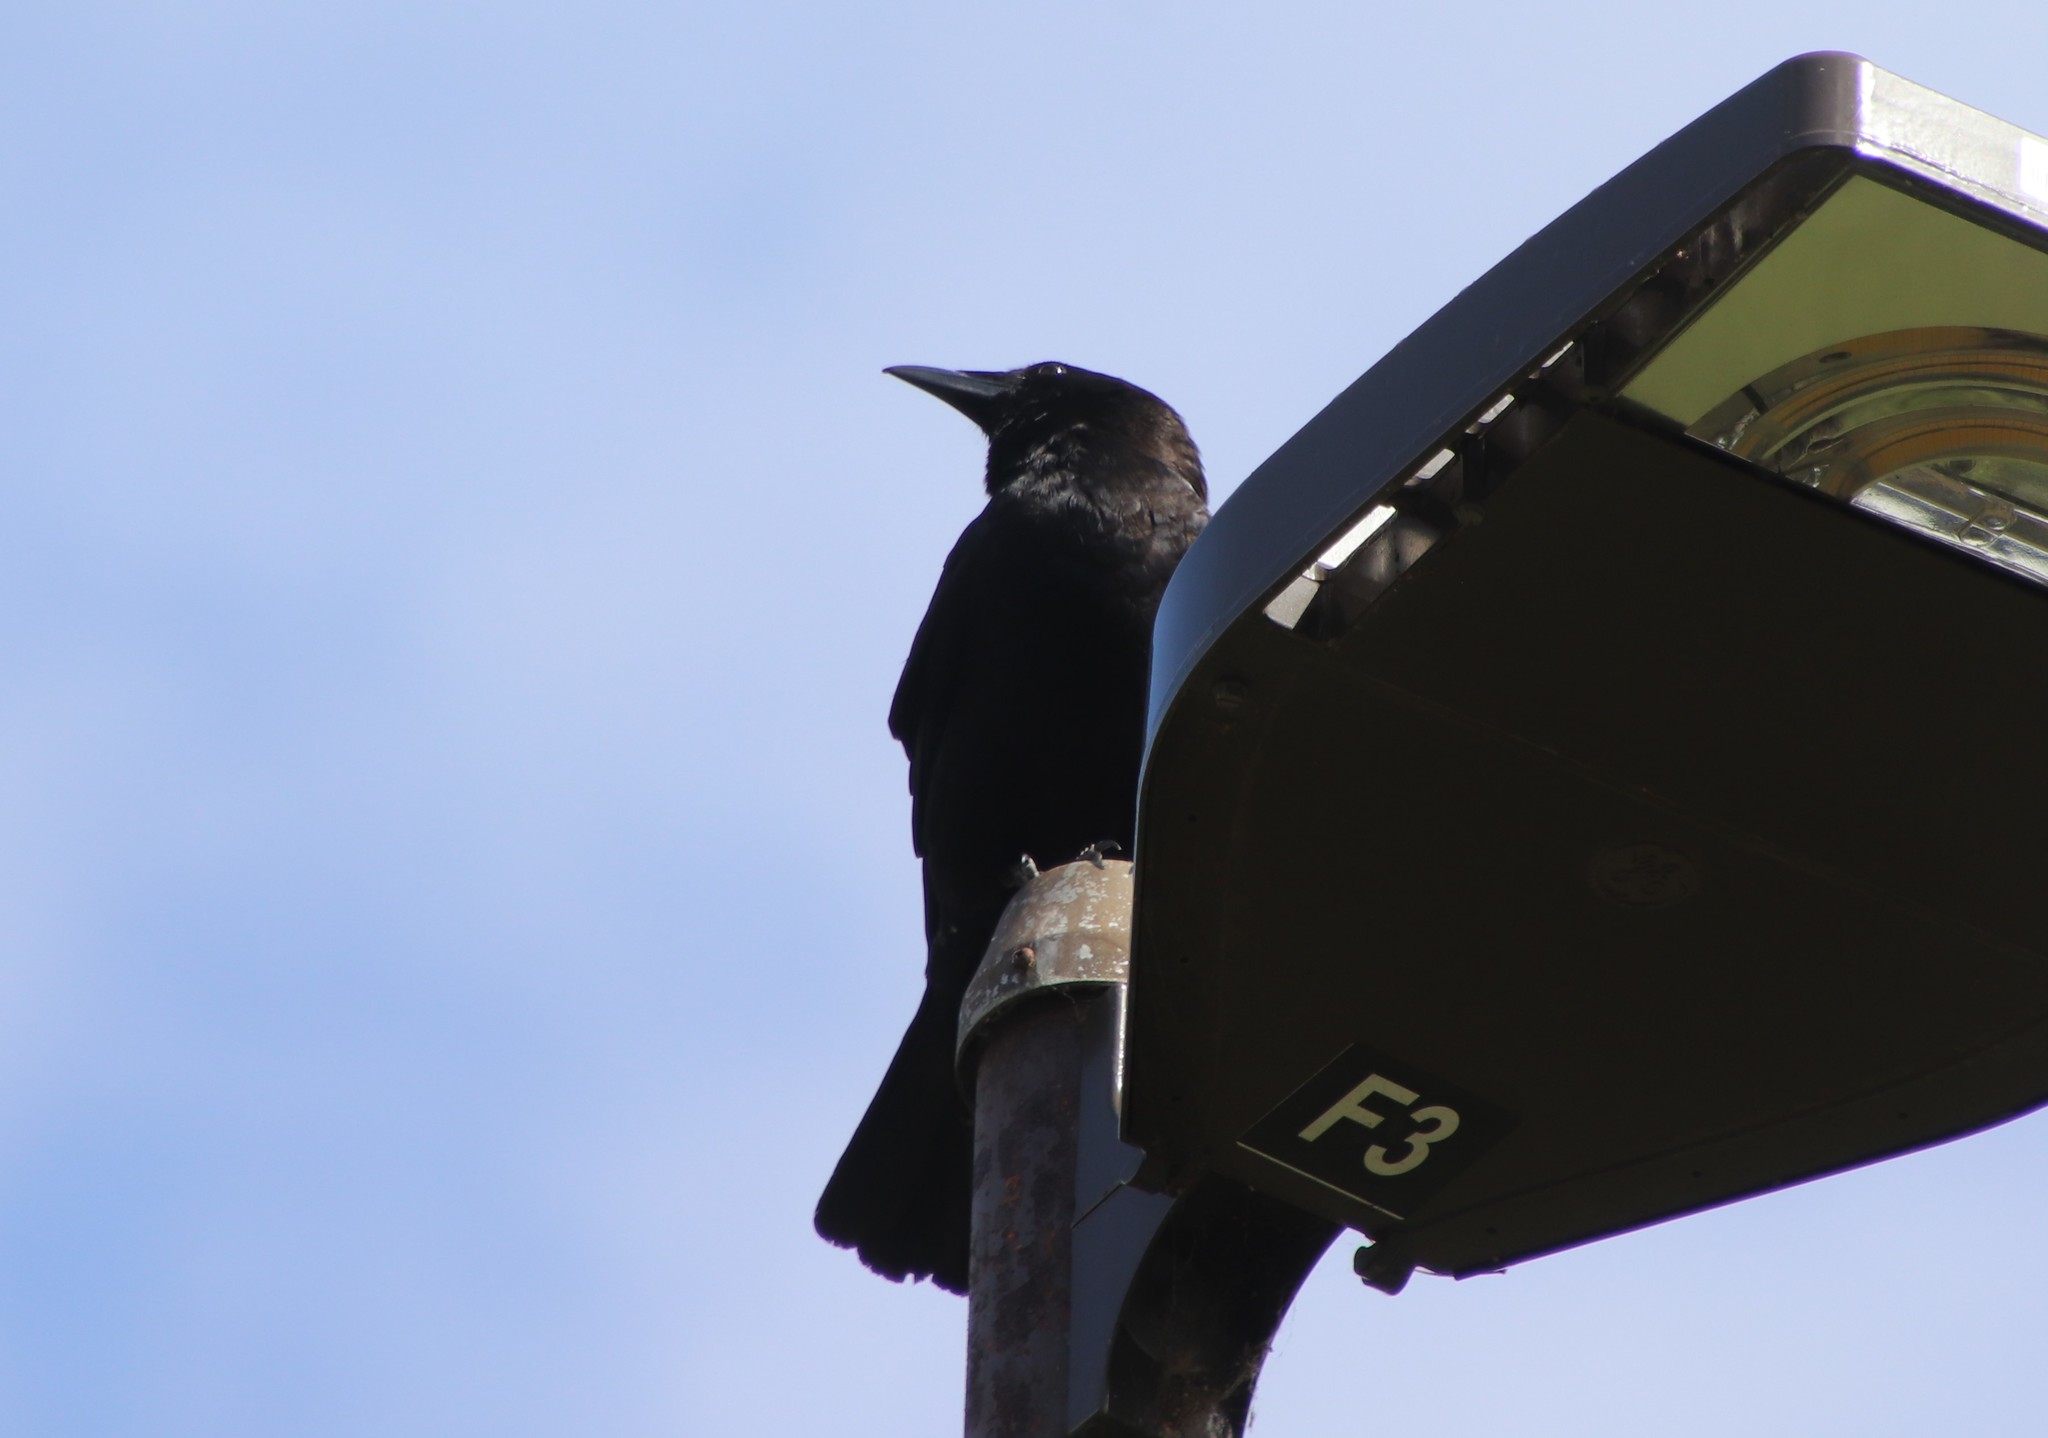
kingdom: Animalia
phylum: Chordata
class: Aves
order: Passeriformes
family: Corvidae
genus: Corvus
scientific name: Corvus brachyrhynchos
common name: American crow
